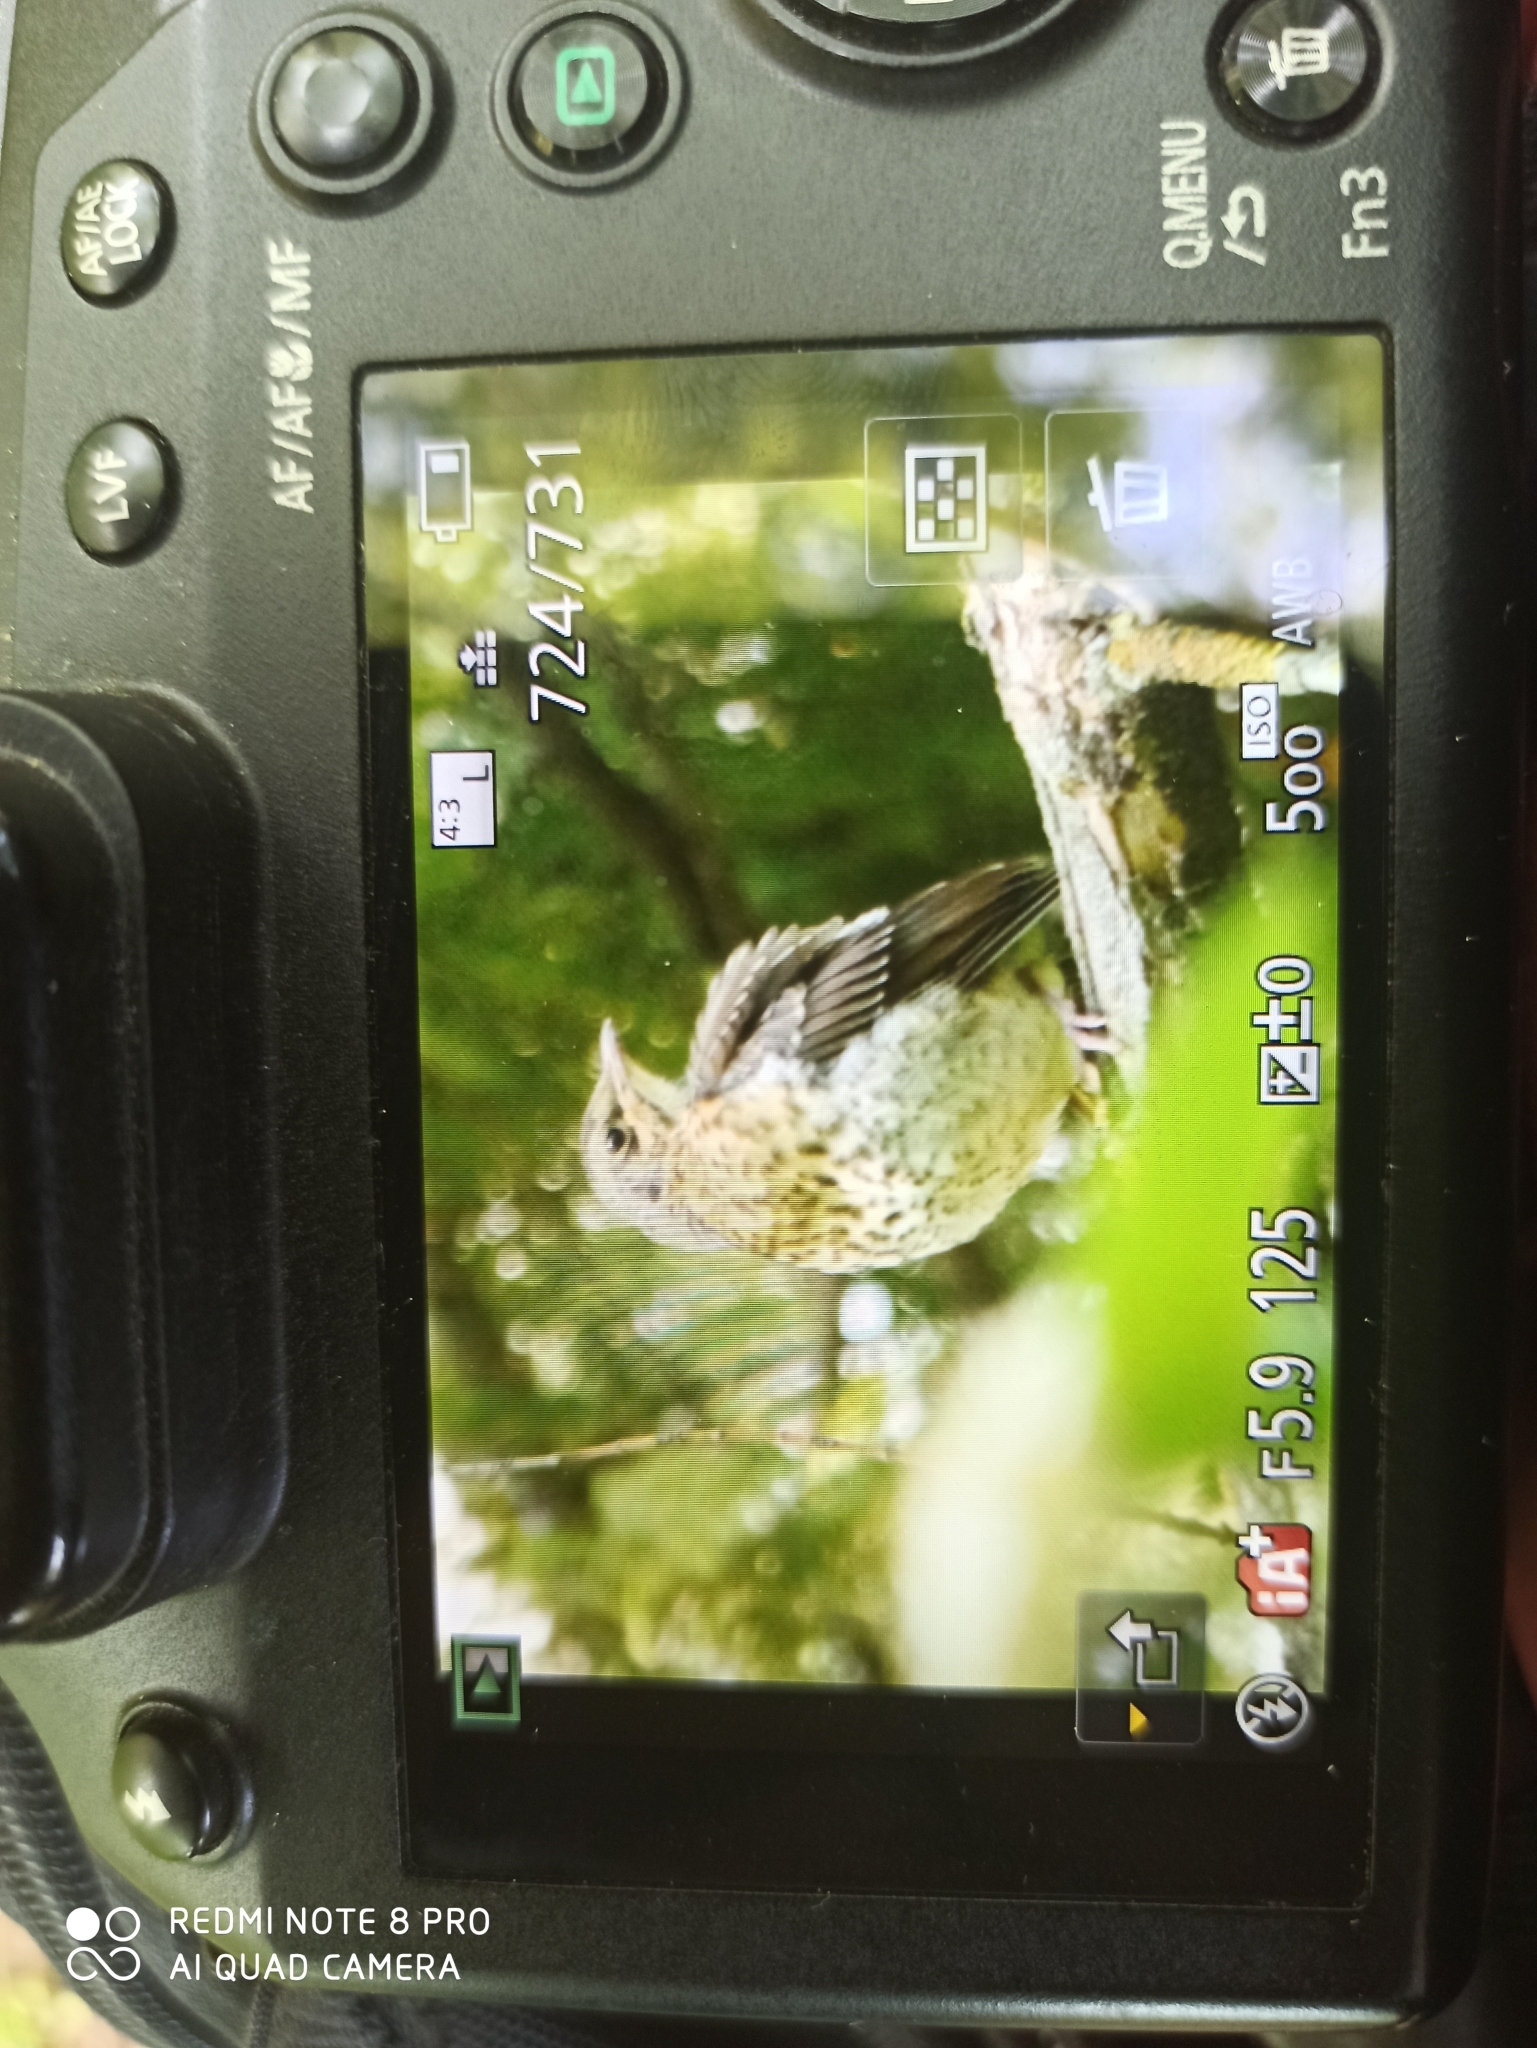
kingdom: Animalia
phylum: Chordata
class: Aves
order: Passeriformes
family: Turdidae
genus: Turdus
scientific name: Turdus pilaris
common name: Fieldfare
